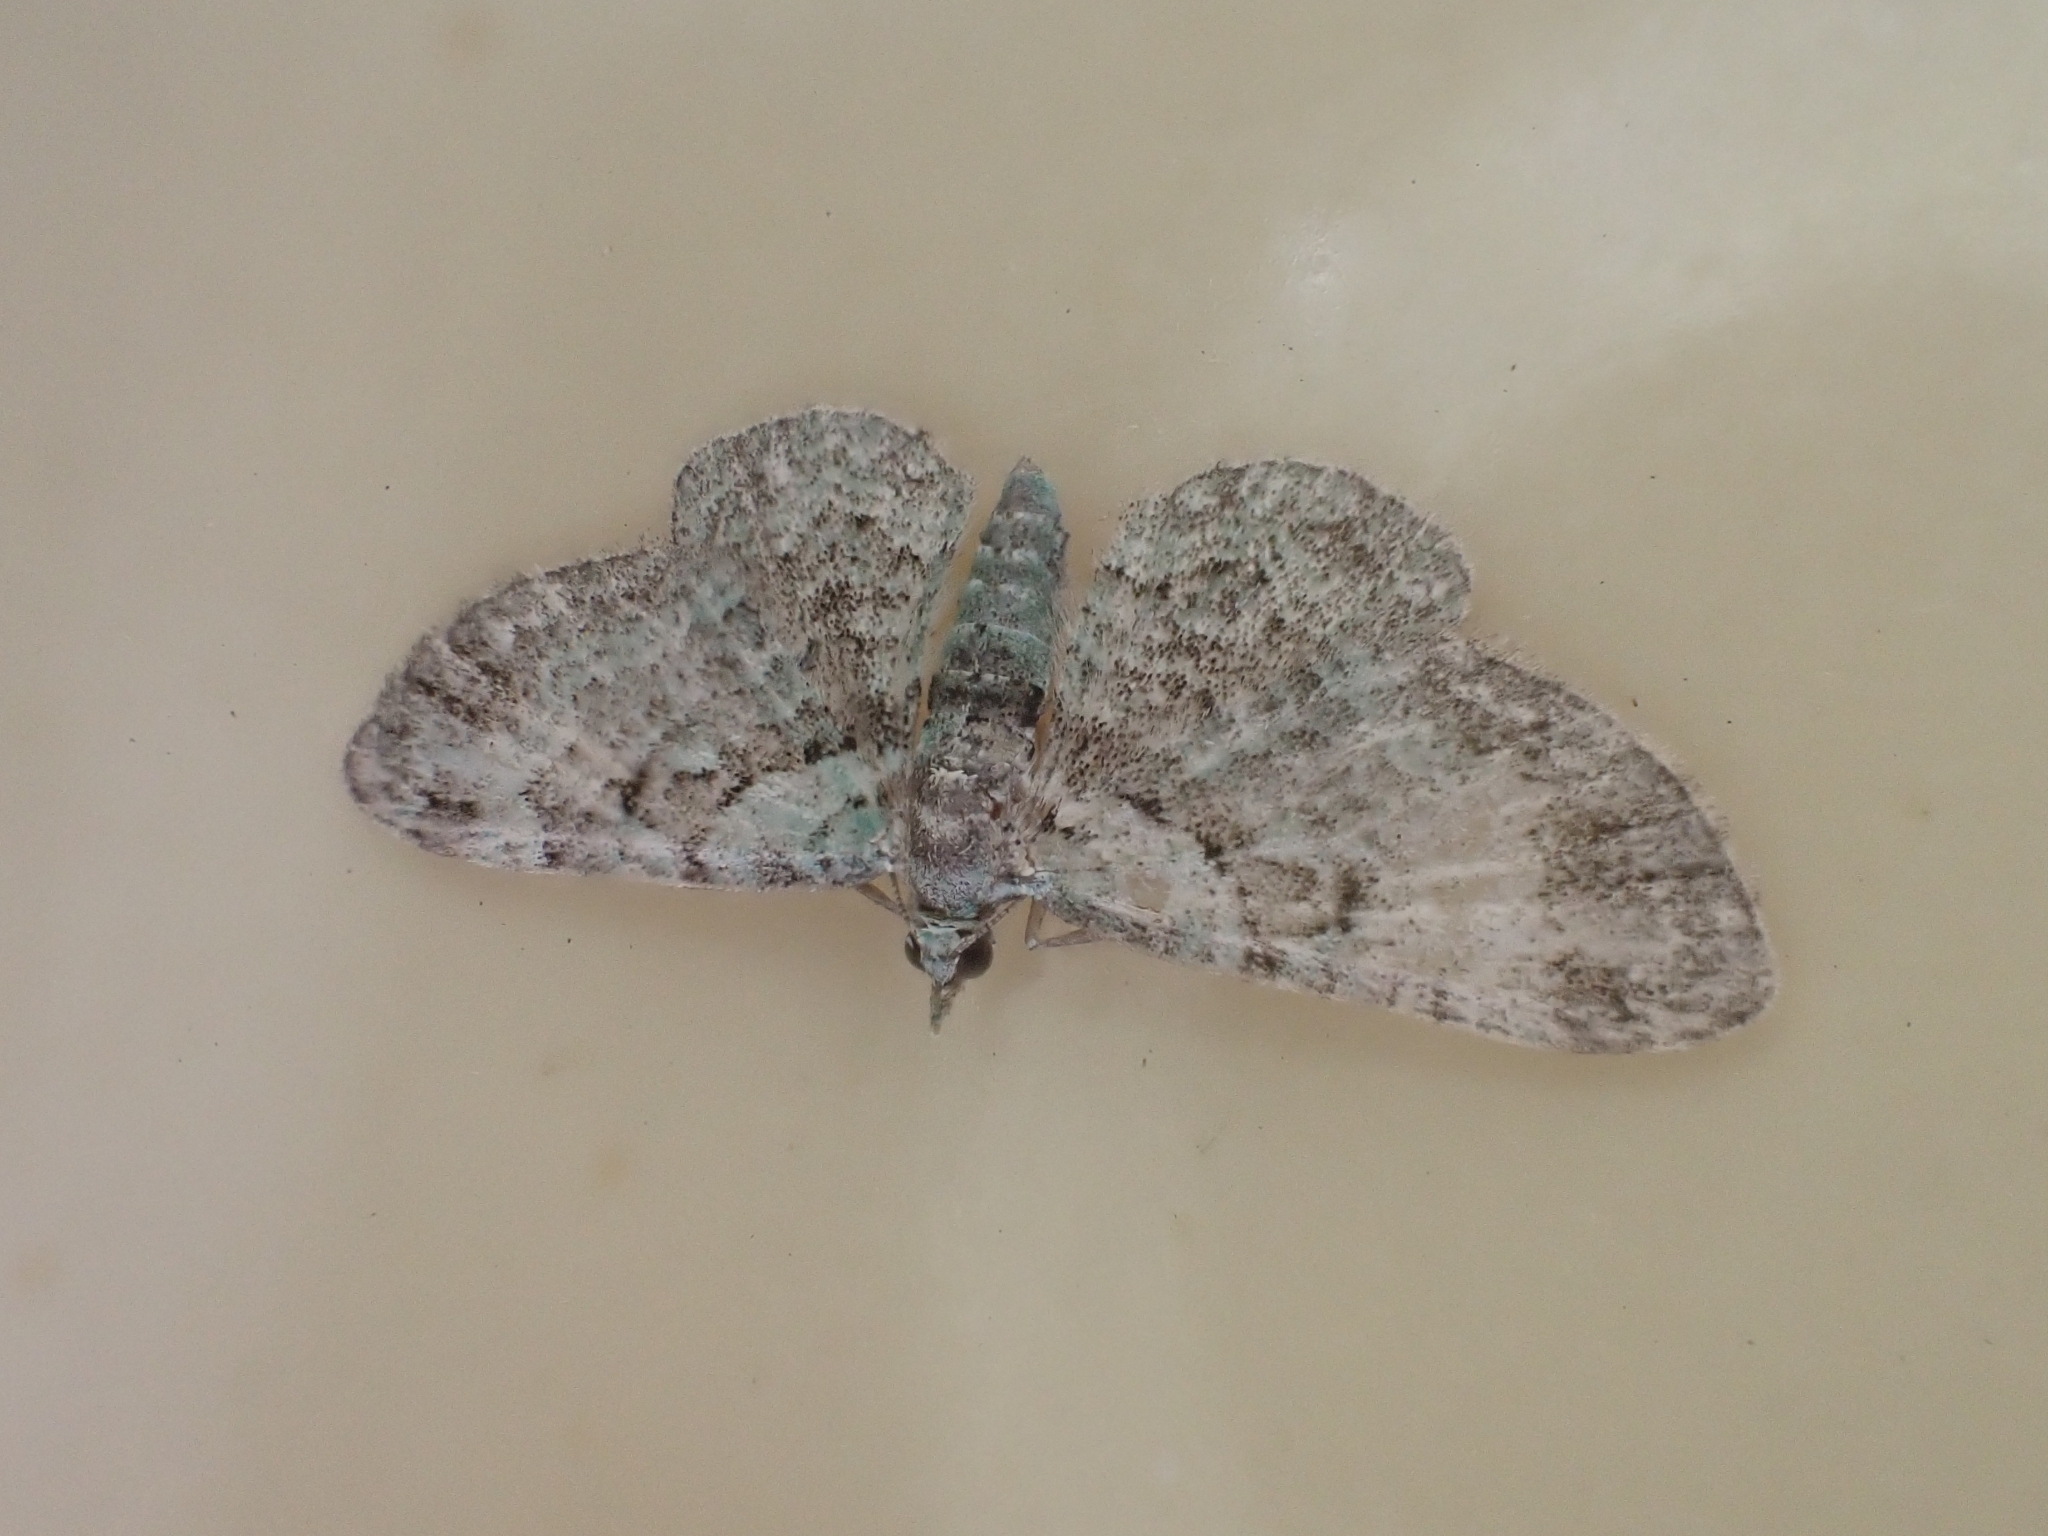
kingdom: Animalia
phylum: Arthropoda
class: Insecta
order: Lepidoptera
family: Geometridae
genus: Pasiphila
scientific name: Pasiphila rectangulata
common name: Green pug
